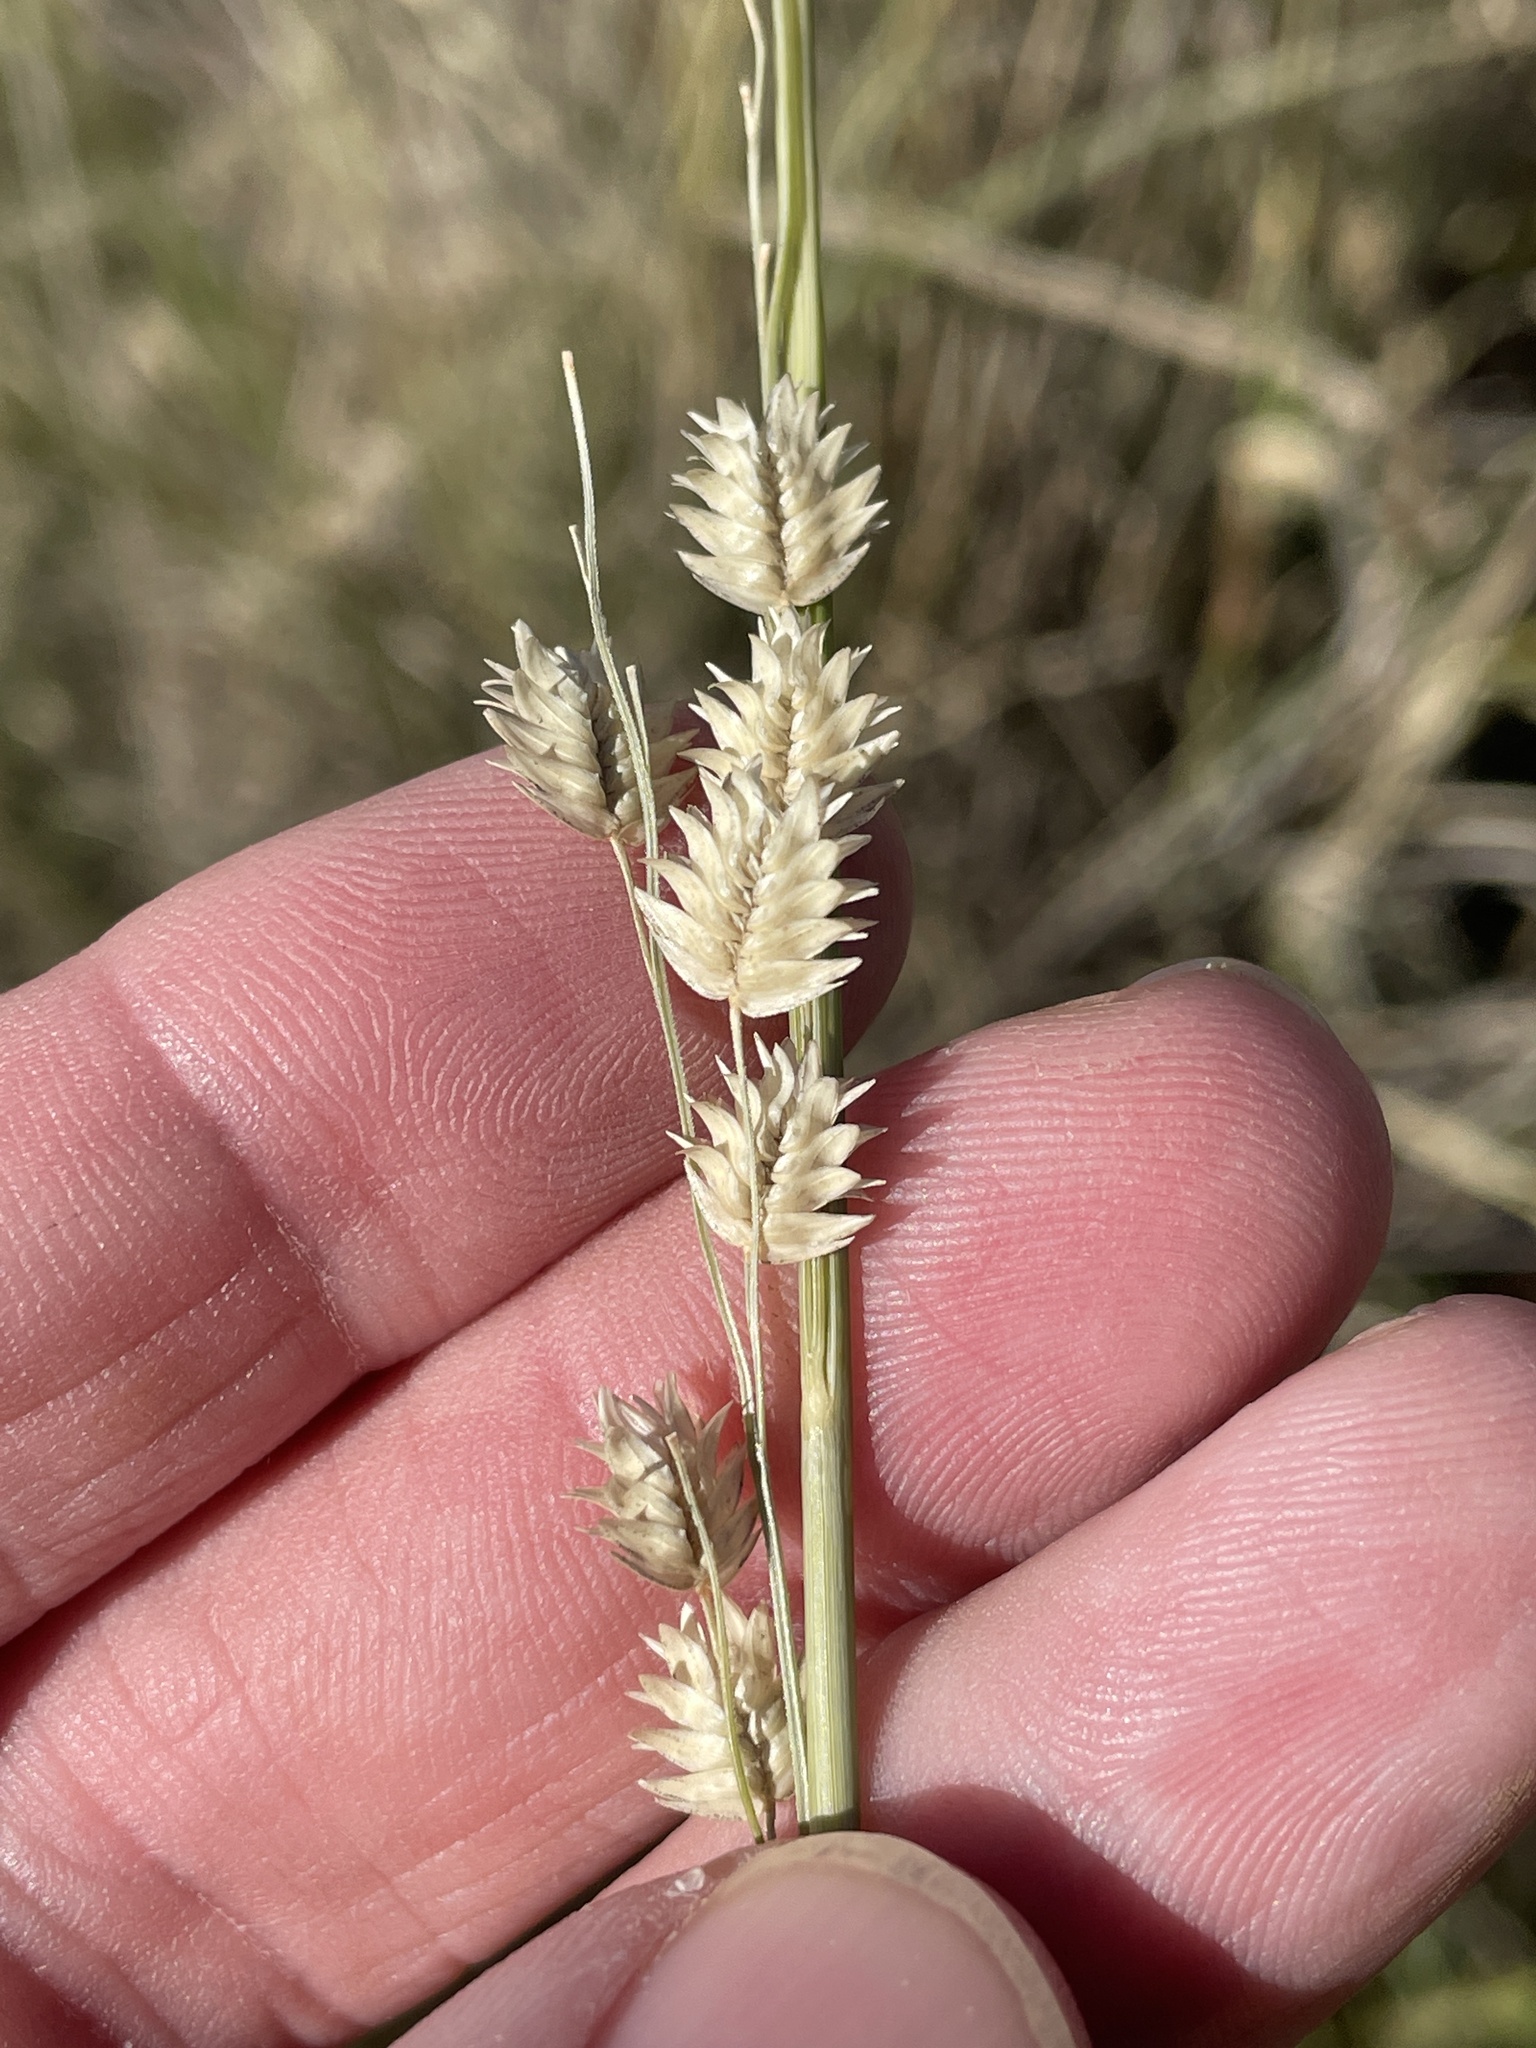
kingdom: Plantae
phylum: Tracheophyta
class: Liliopsida
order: Poales
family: Poaceae
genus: Eragrostis
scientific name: Eragrostis superba
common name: Wilman lovegrass
